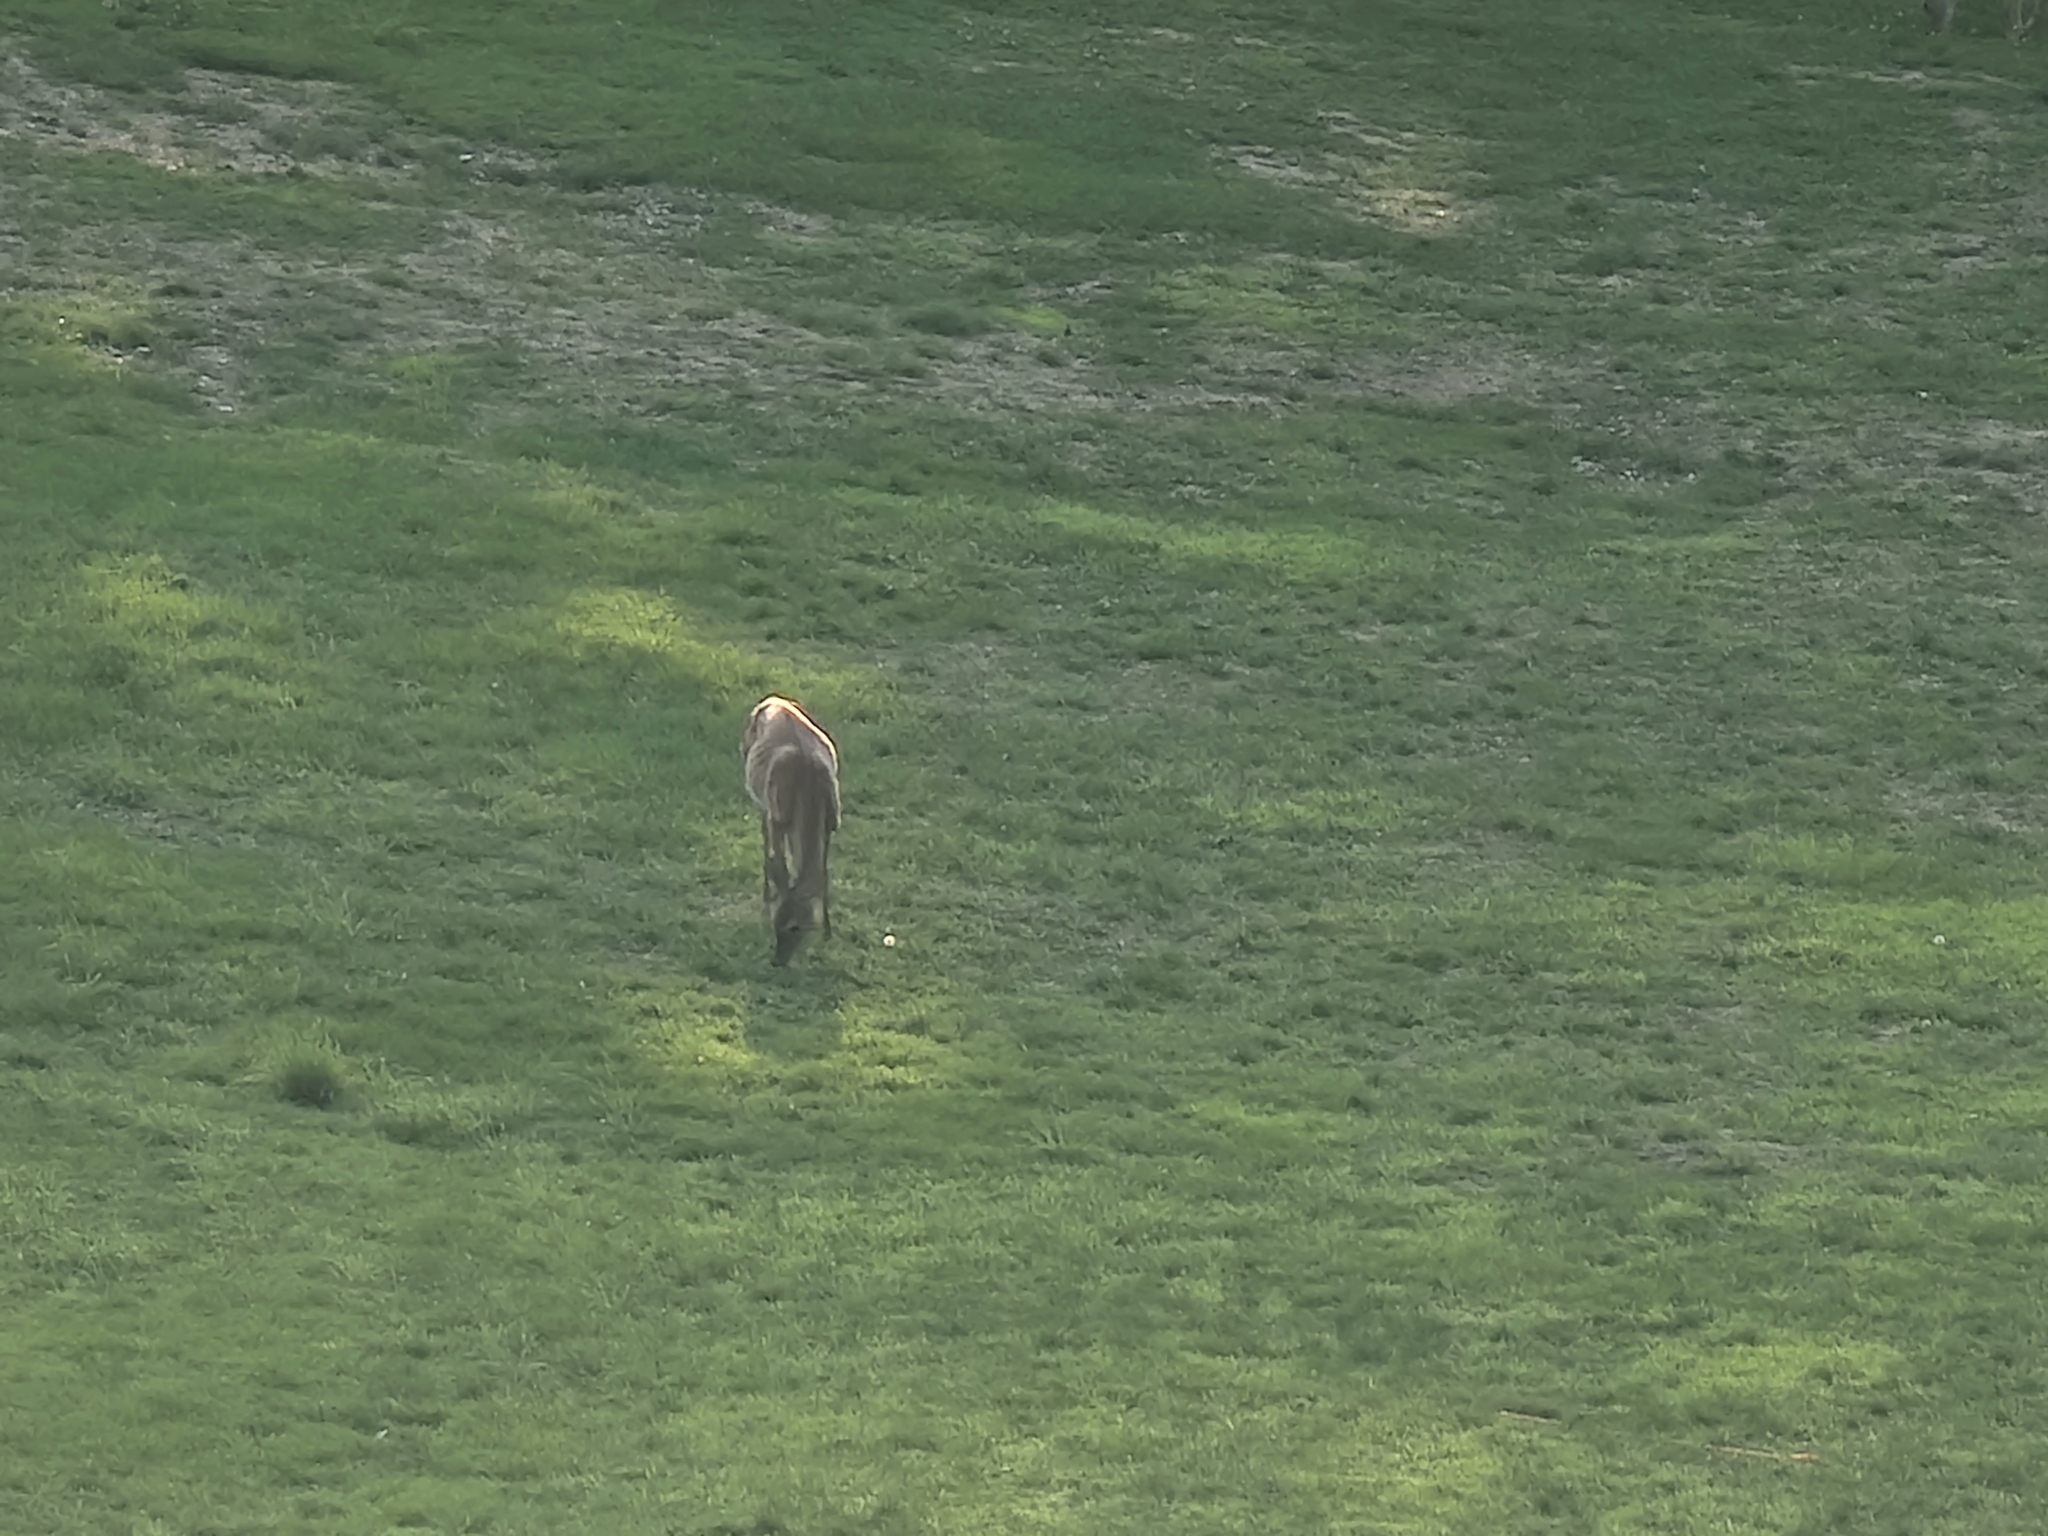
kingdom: Animalia
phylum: Chordata
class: Mammalia
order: Artiodactyla
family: Cervidae
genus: Odocoileus
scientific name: Odocoileus virginianus
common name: White-tailed deer
